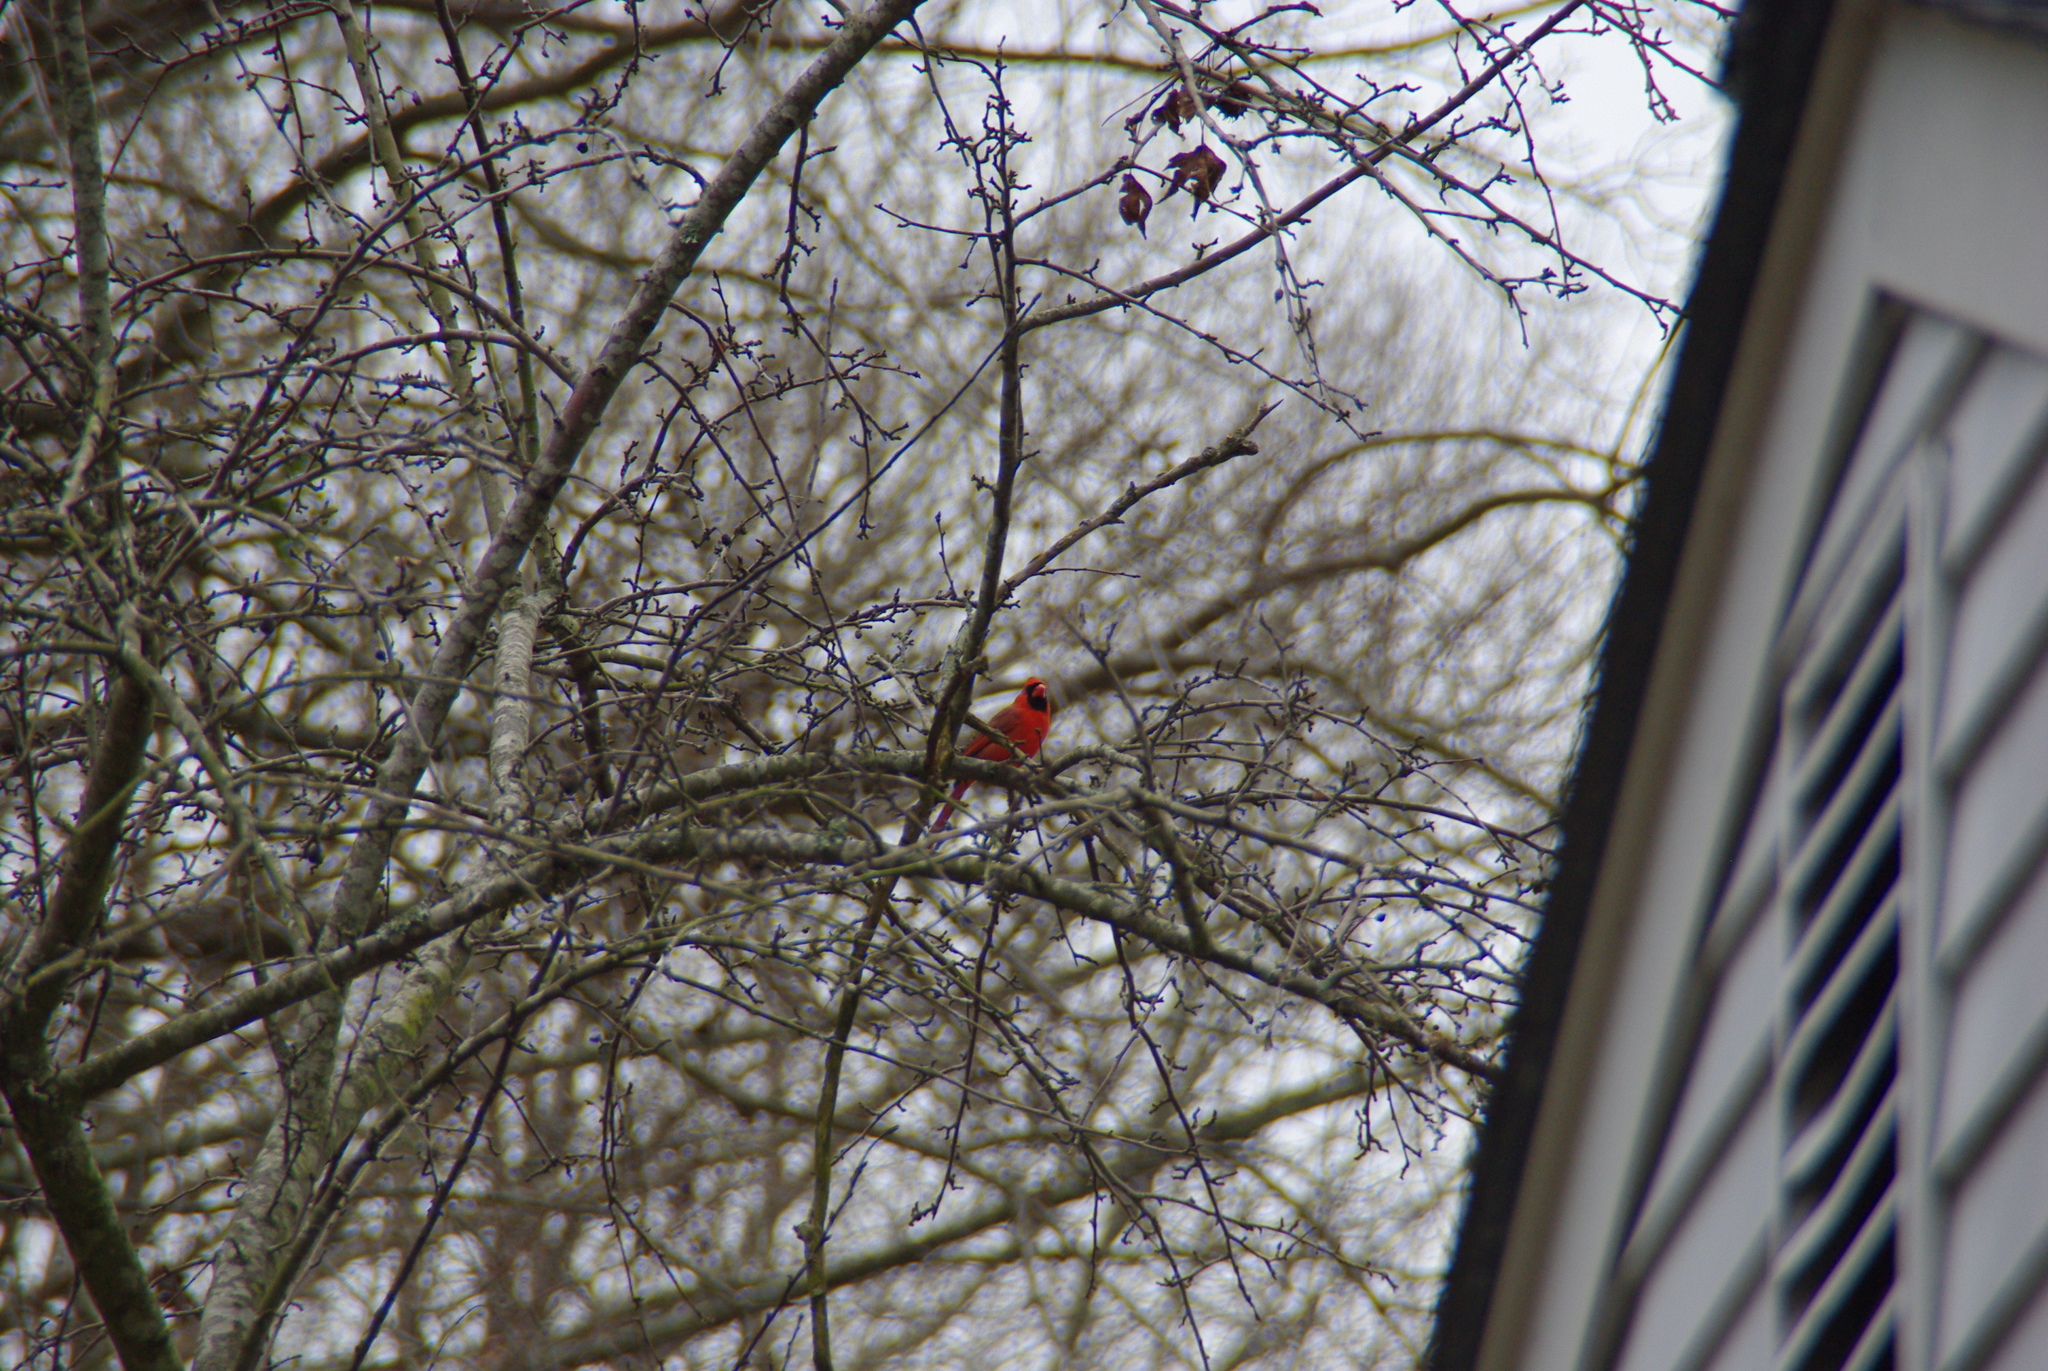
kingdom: Animalia
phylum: Chordata
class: Aves
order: Passeriformes
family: Cardinalidae
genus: Cardinalis
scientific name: Cardinalis cardinalis
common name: Northern cardinal
